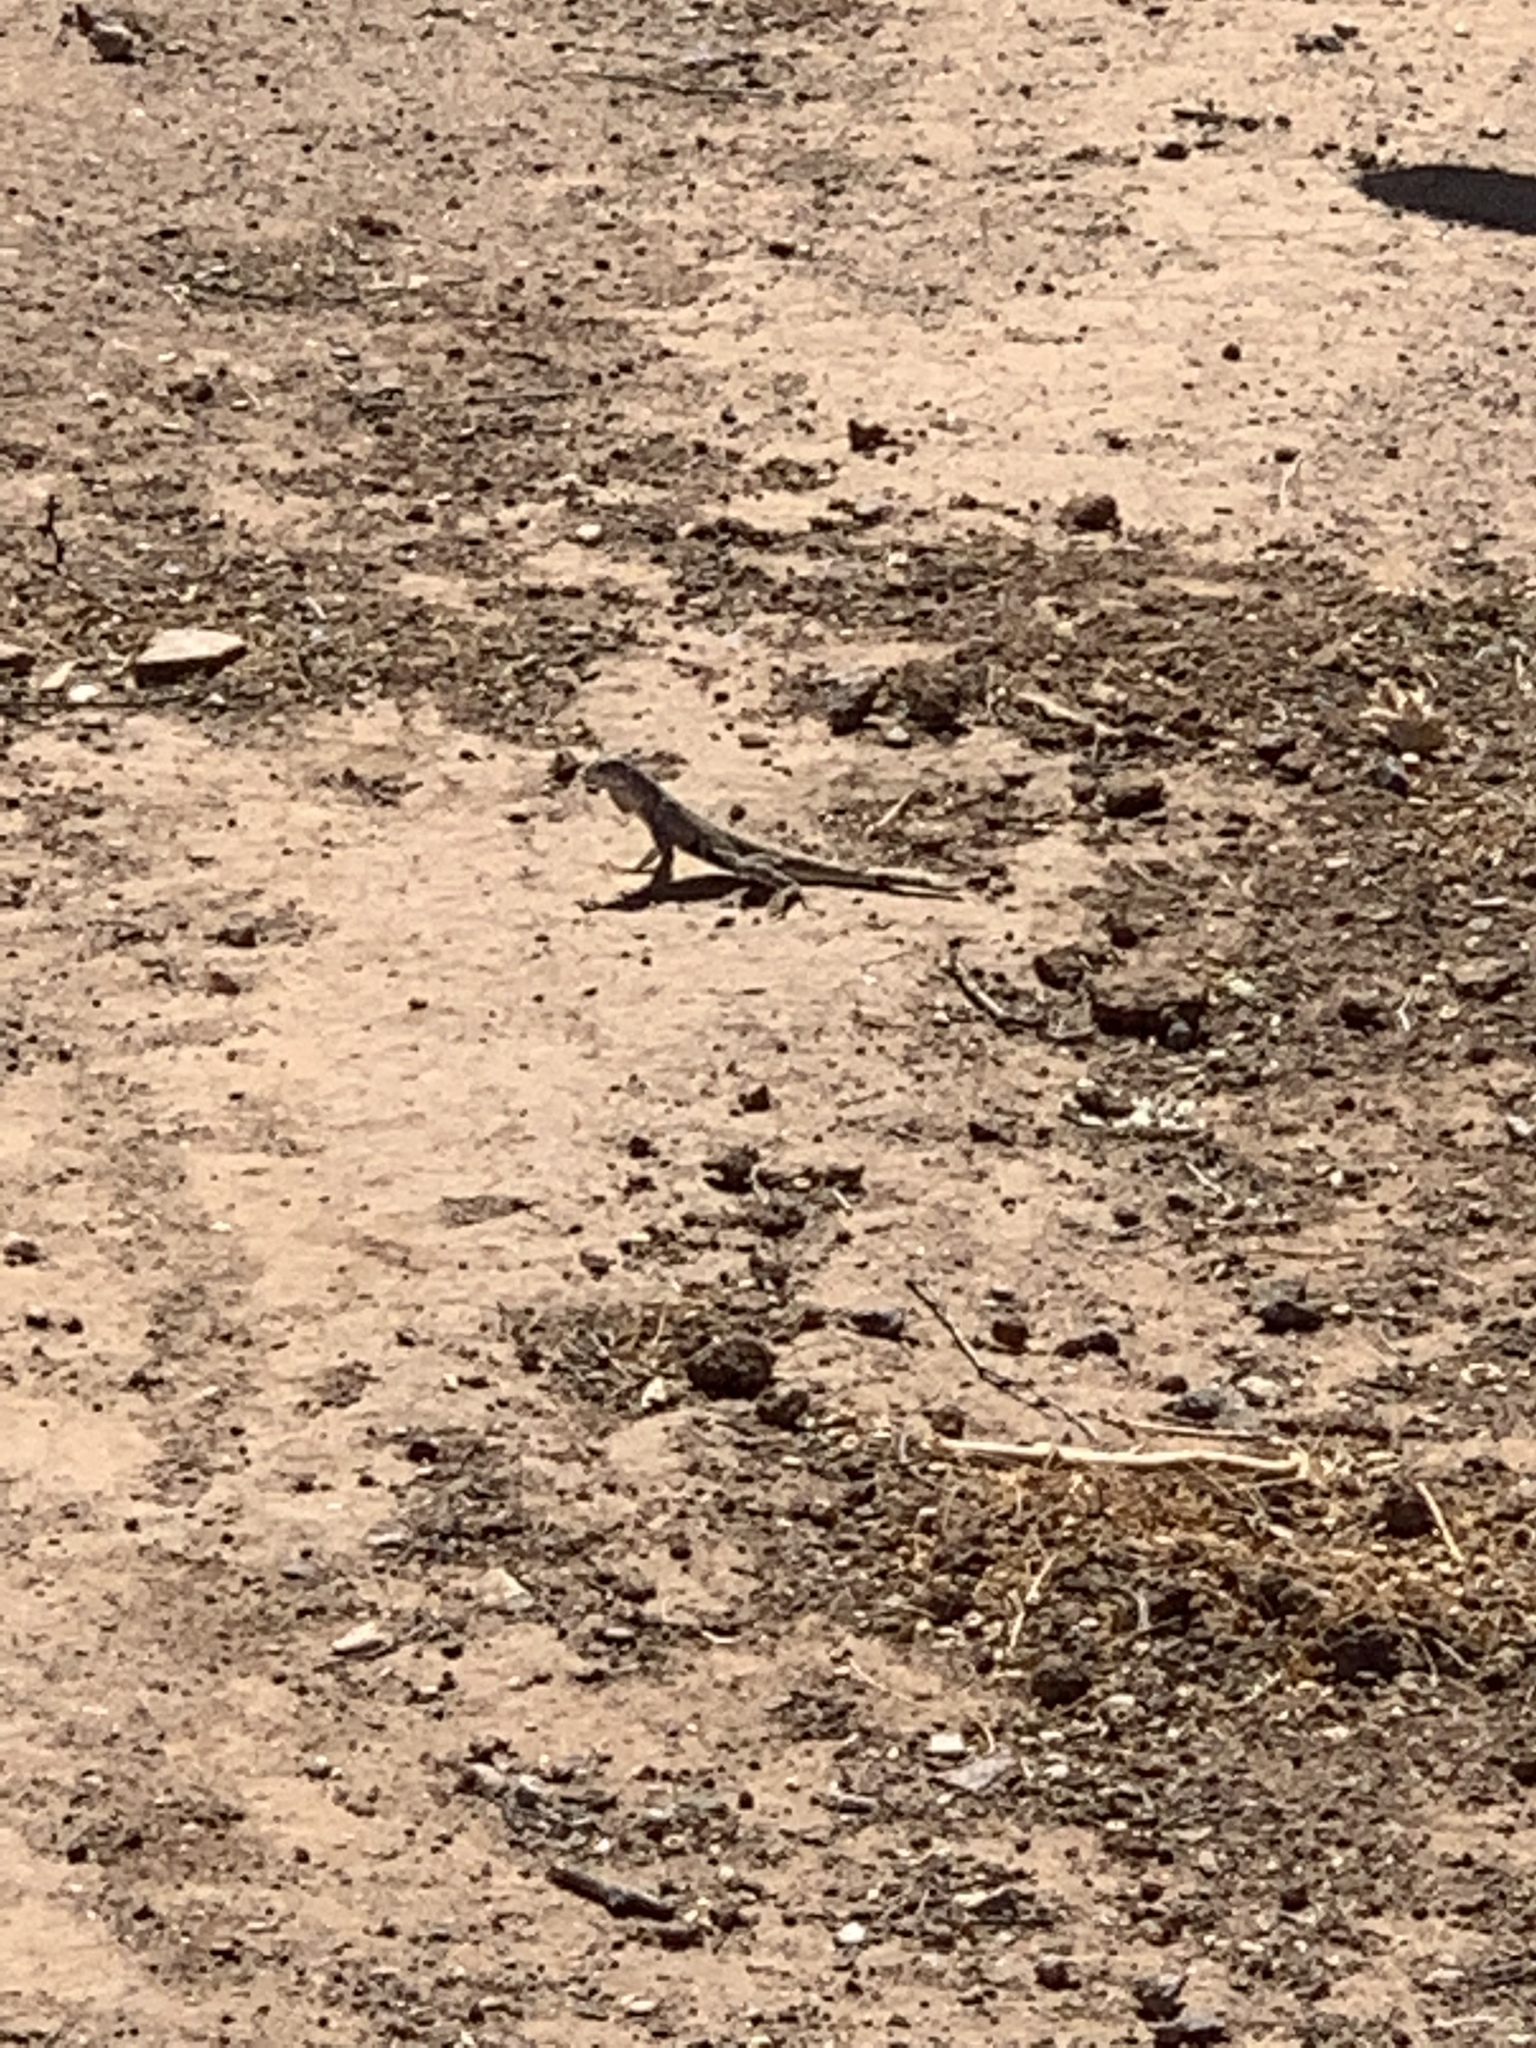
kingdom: Animalia
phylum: Chordata
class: Squamata
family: Phrynosomatidae
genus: Callisaurus
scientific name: Callisaurus draconoides
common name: Zebra-tailed lizard
